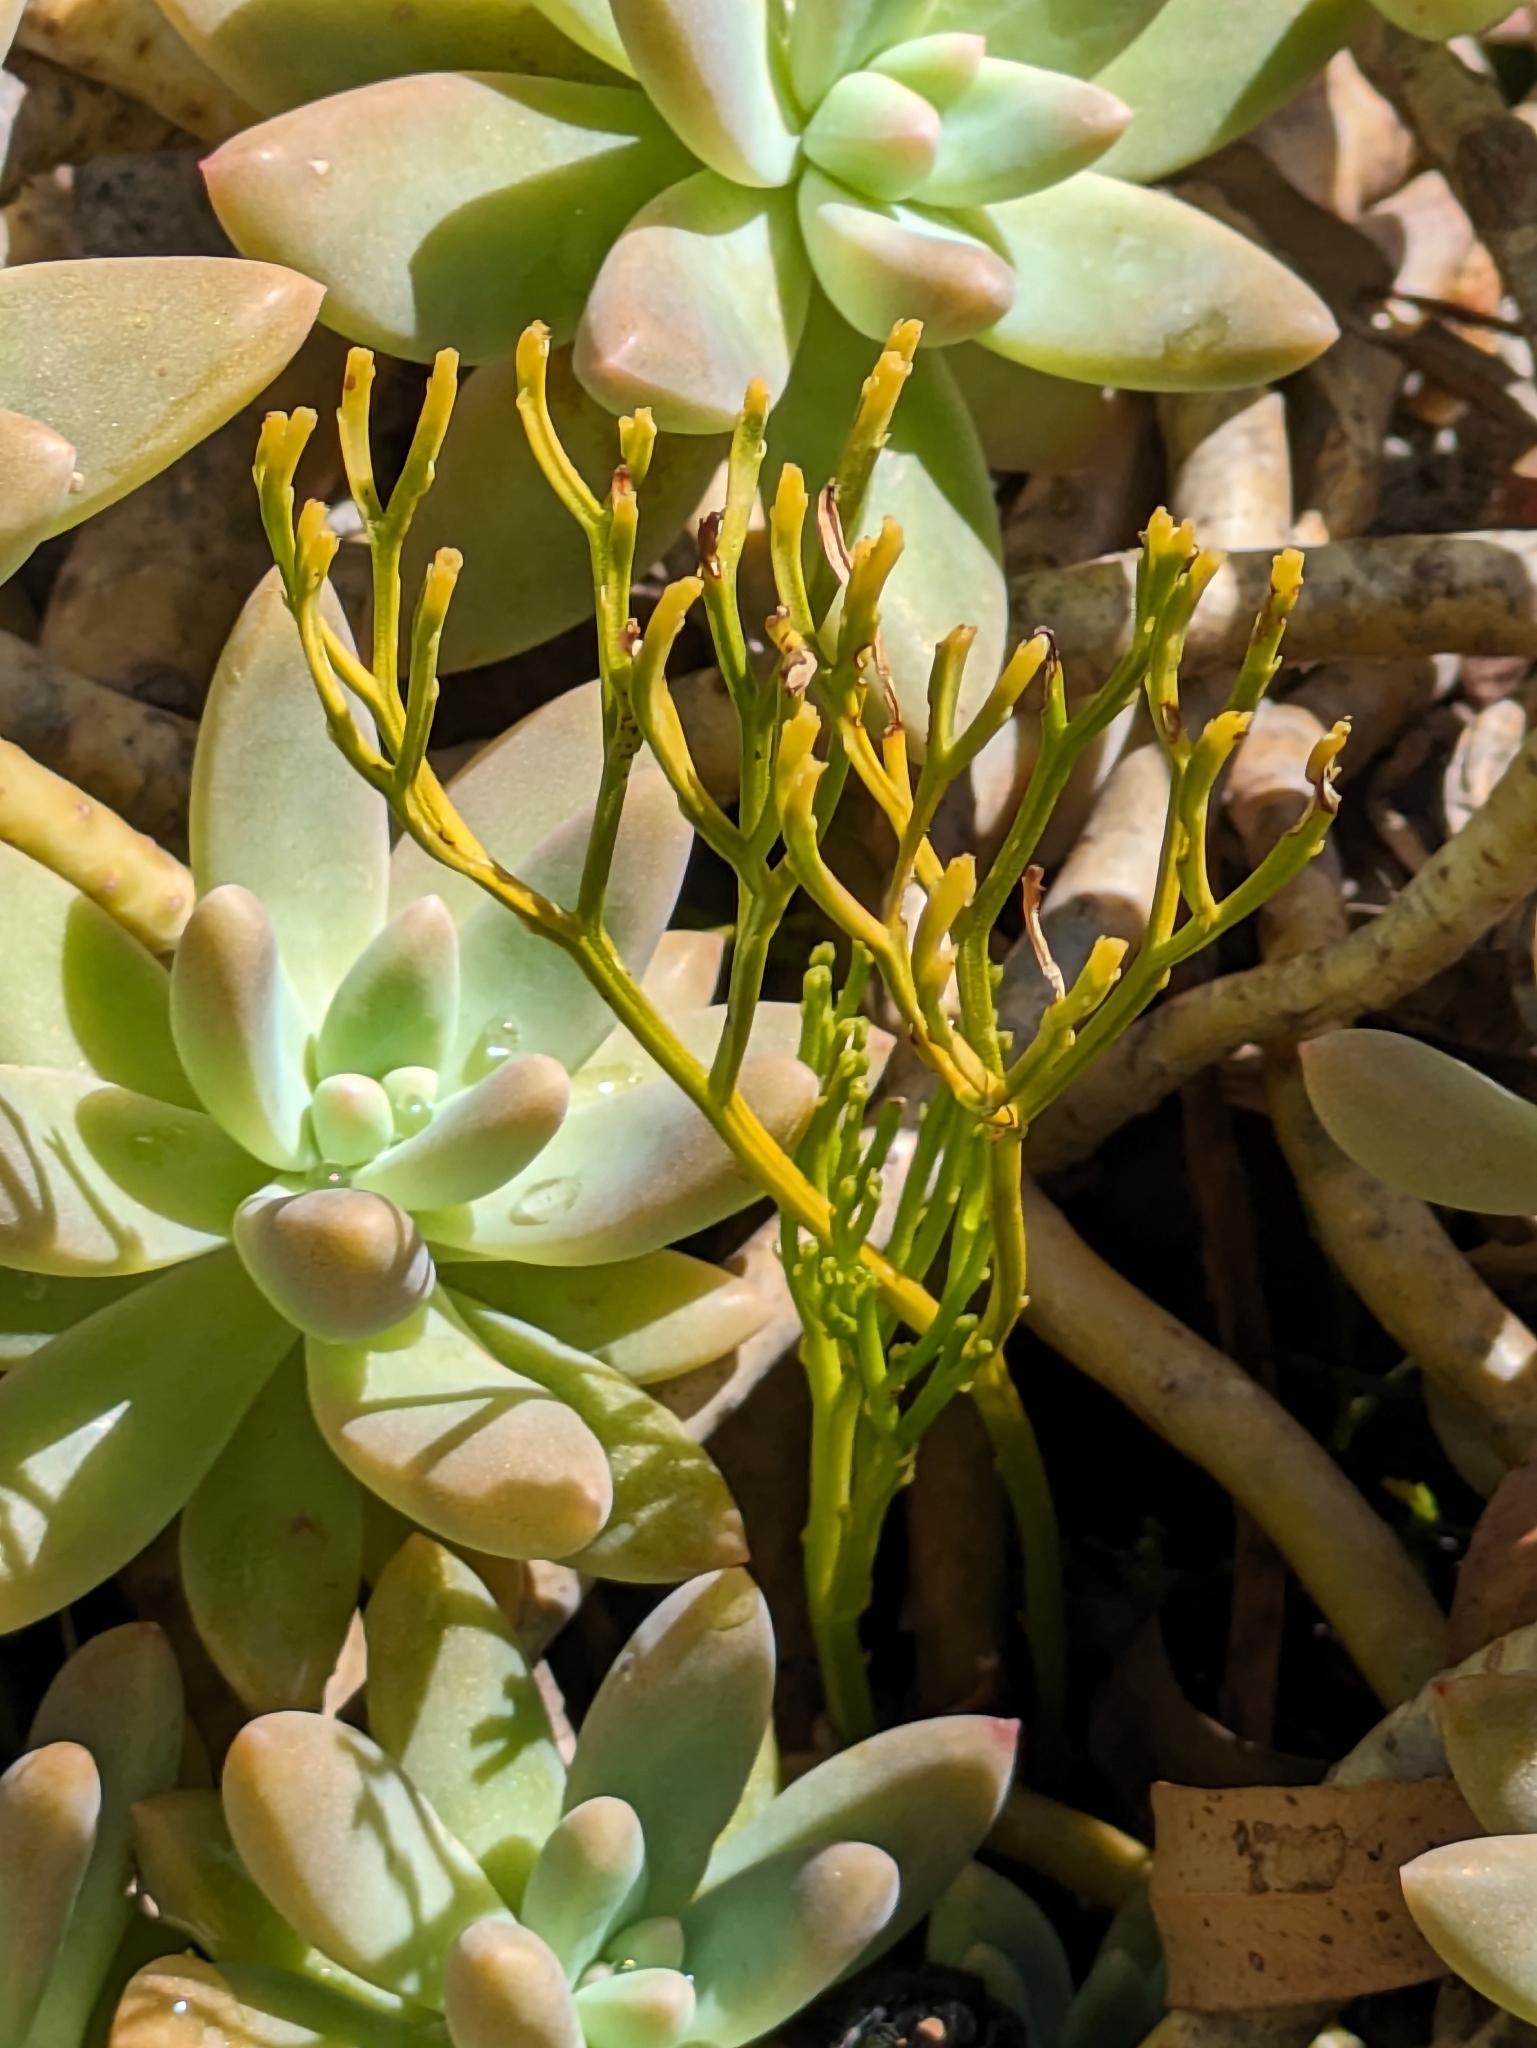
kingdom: Plantae
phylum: Tracheophyta
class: Polypodiopsida
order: Psilotales
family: Psilotaceae
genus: Psilotum
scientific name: Psilotum nudum
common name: Skeleton fork fern
